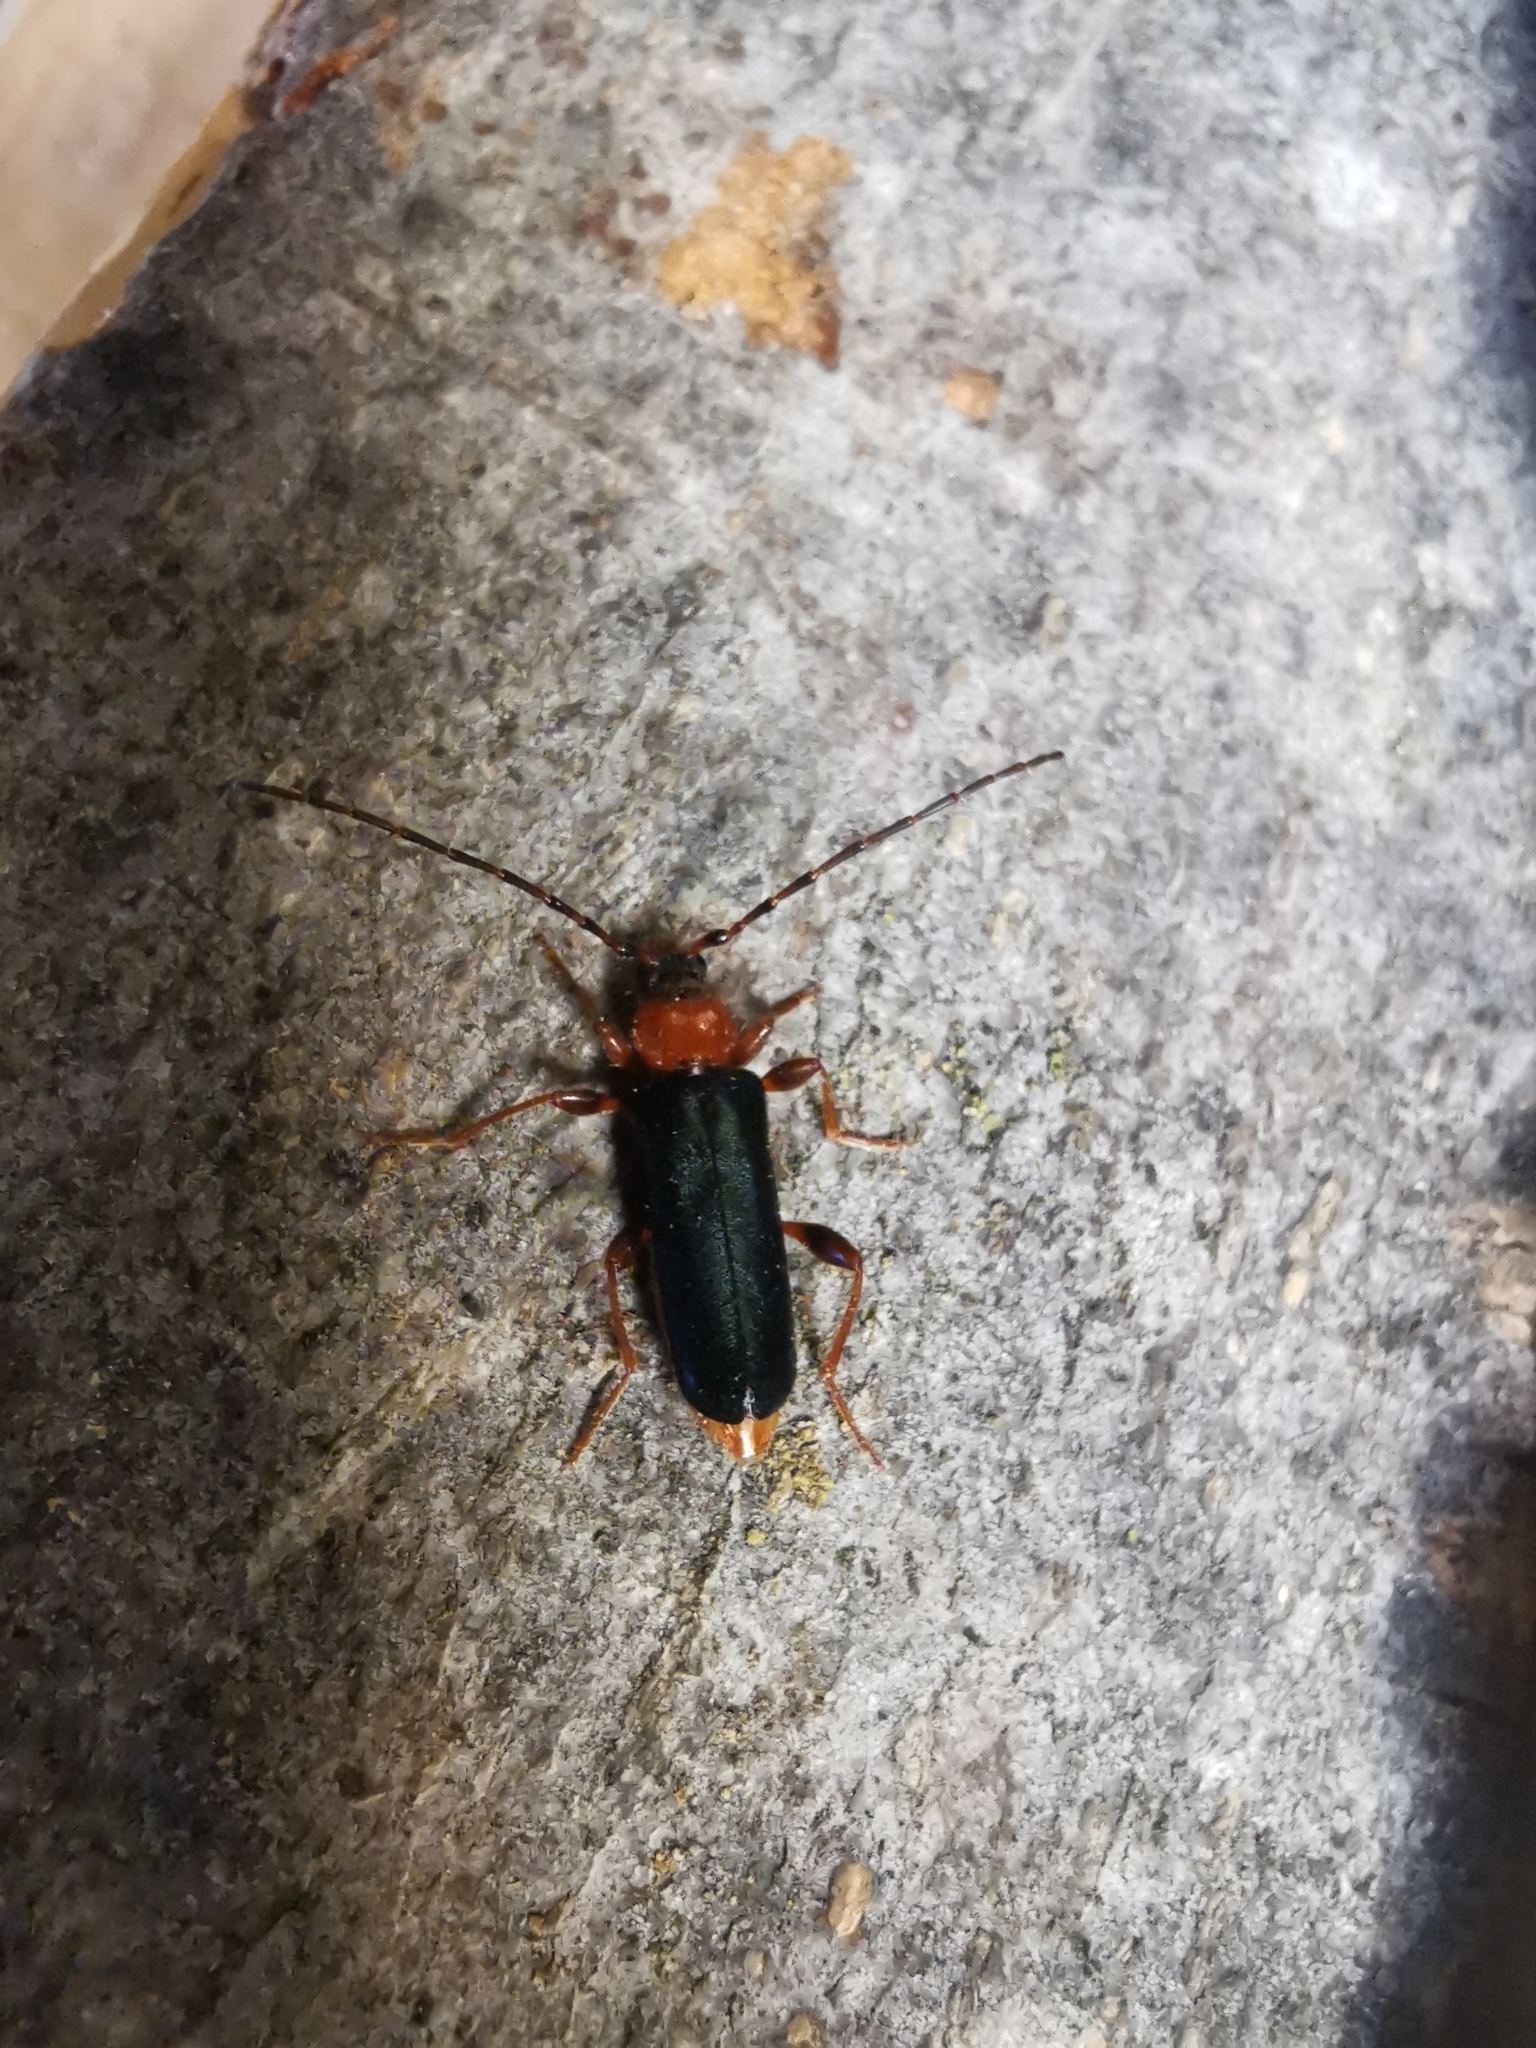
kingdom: Animalia
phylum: Arthropoda
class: Insecta
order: Coleoptera
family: Cerambycidae
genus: Phymatodes
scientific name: Phymatodes testaceus
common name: Long-horned beetle
